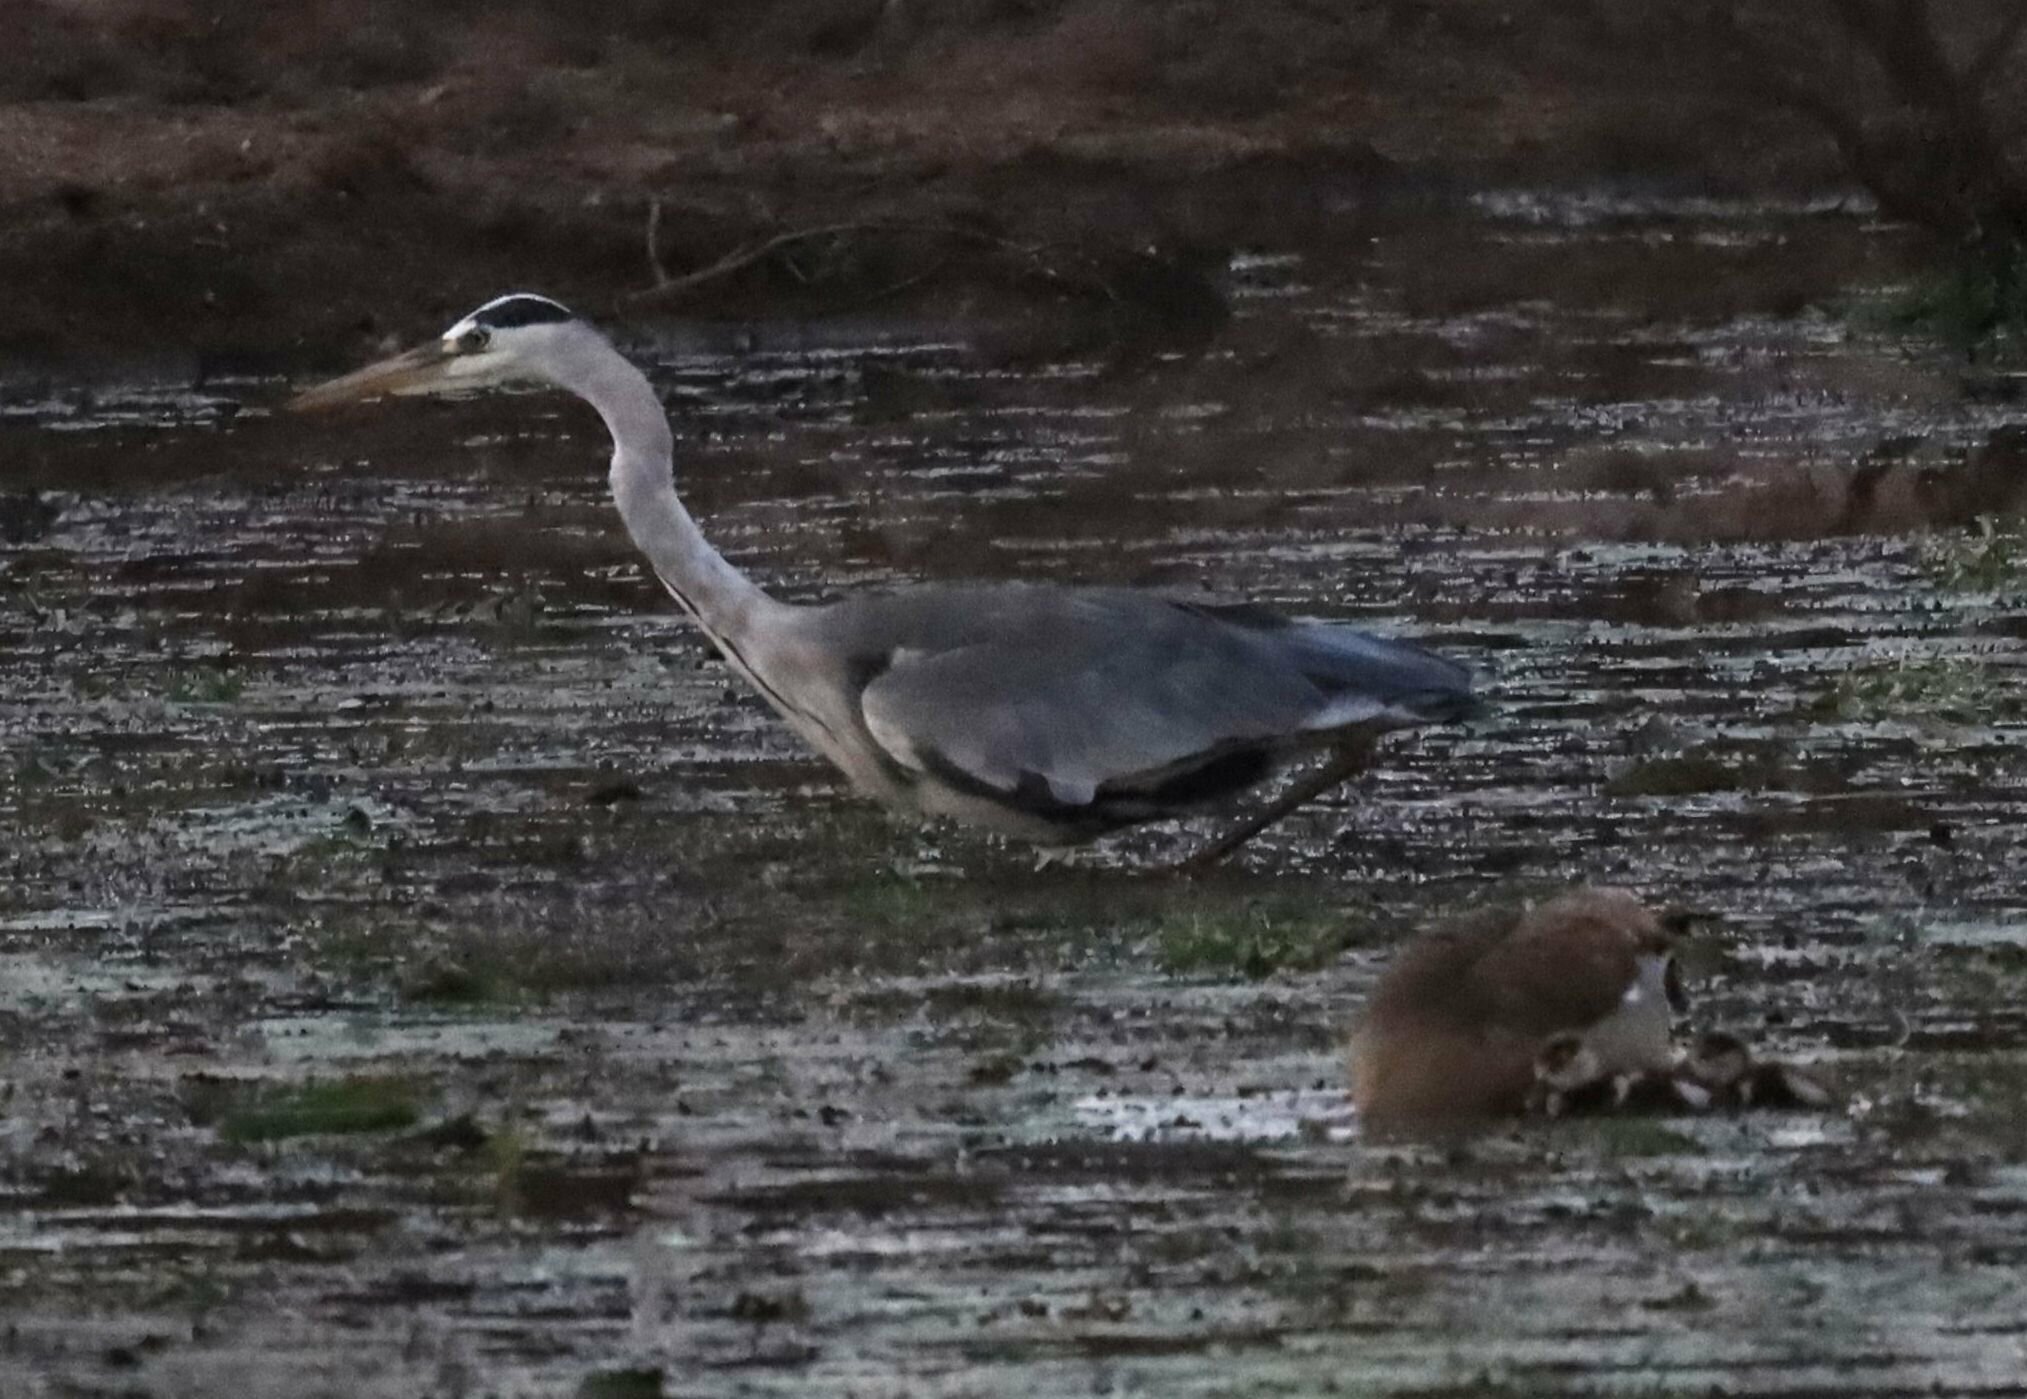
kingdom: Animalia
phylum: Chordata
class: Aves
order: Pelecaniformes
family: Ardeidae
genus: Ardea
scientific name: Ardea cinerea
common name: Grey heron
